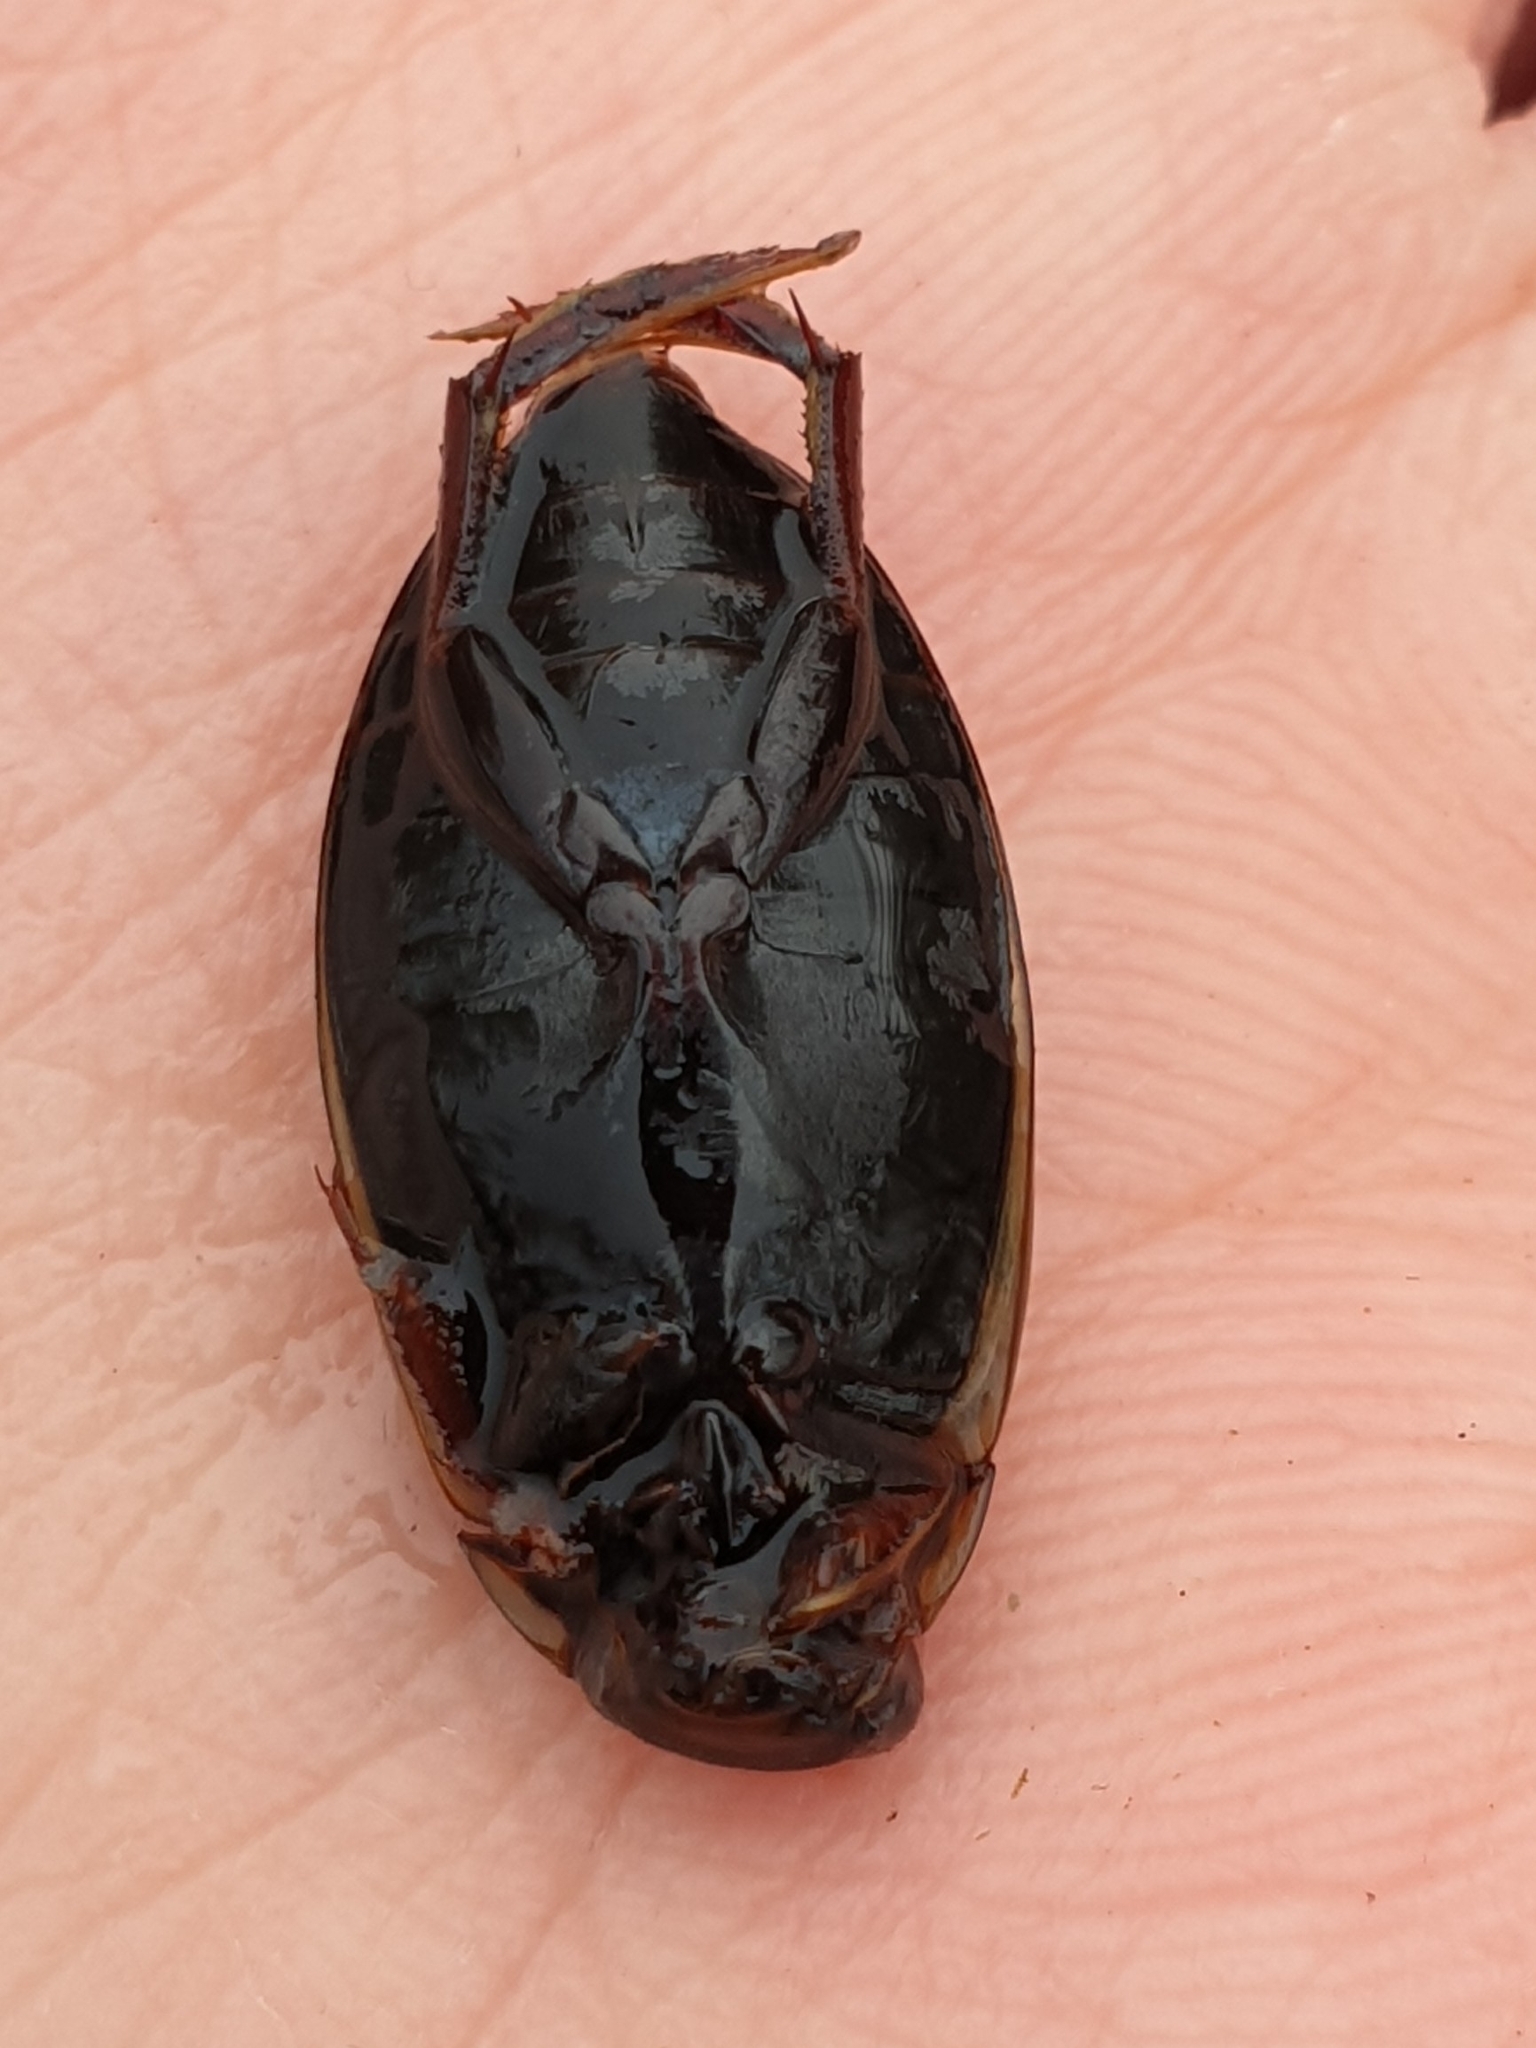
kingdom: Animalia
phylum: Arthropoda
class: Insecta
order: Coleoptera
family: Dytiscidae
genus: Colymbetes
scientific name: Colymbetes fuscus
